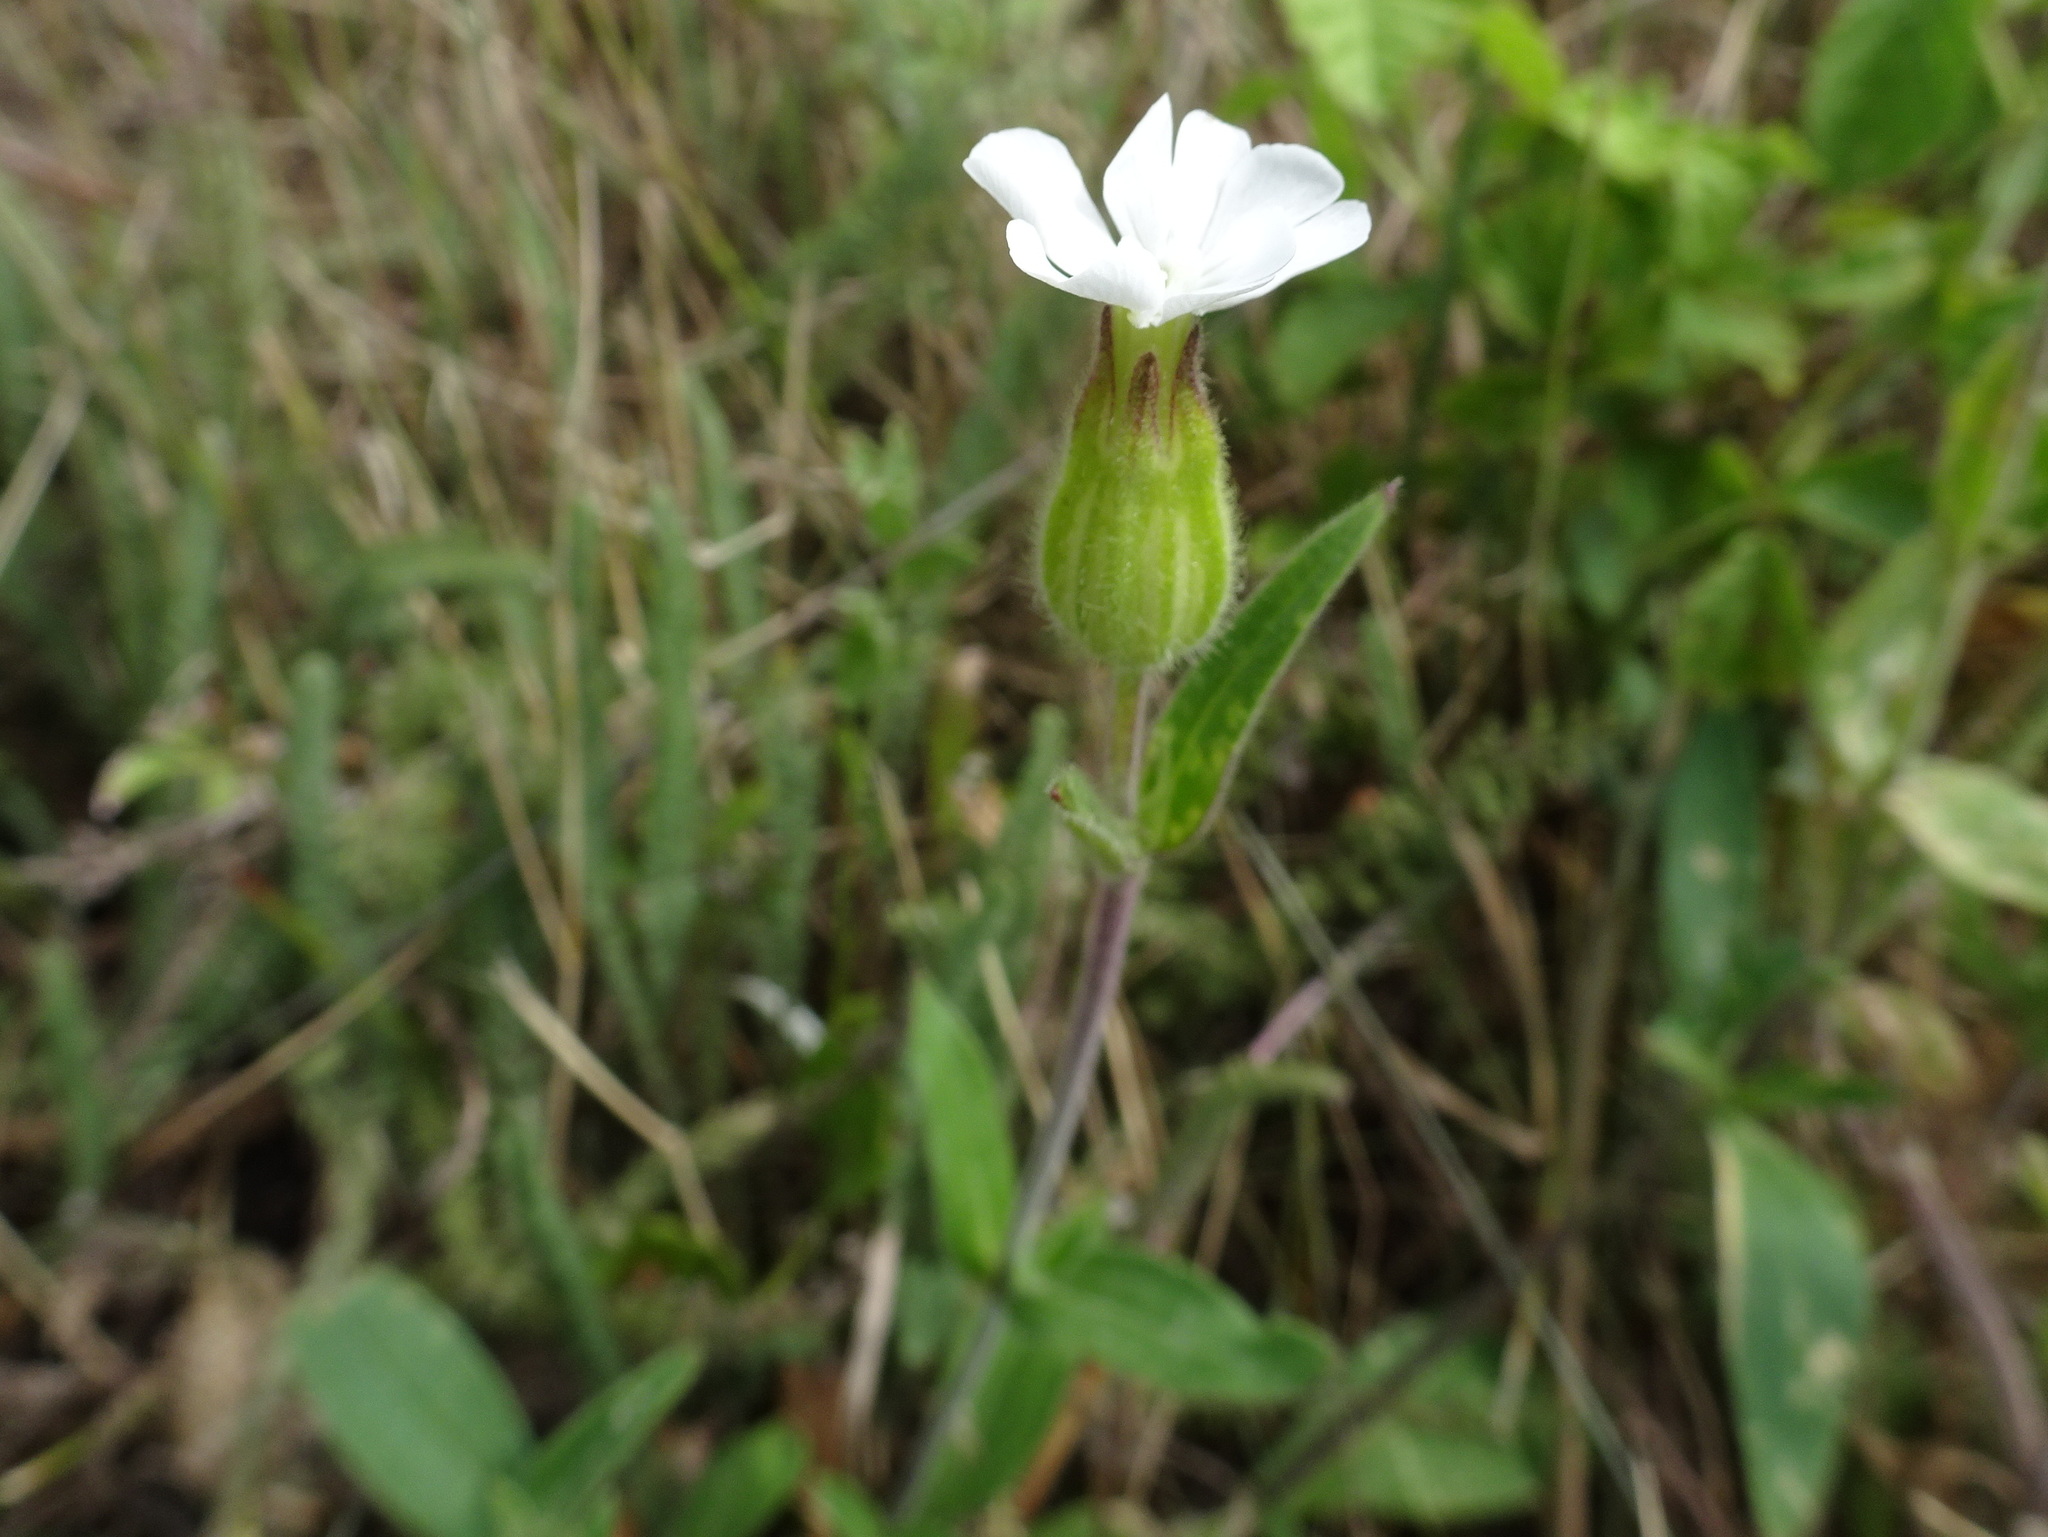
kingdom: Plantae
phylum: Tracheophyta
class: Magnoliopsida
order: Caryophyllales
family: Caryophyllaceae
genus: Silene
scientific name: Silene latifolia
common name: White campion
